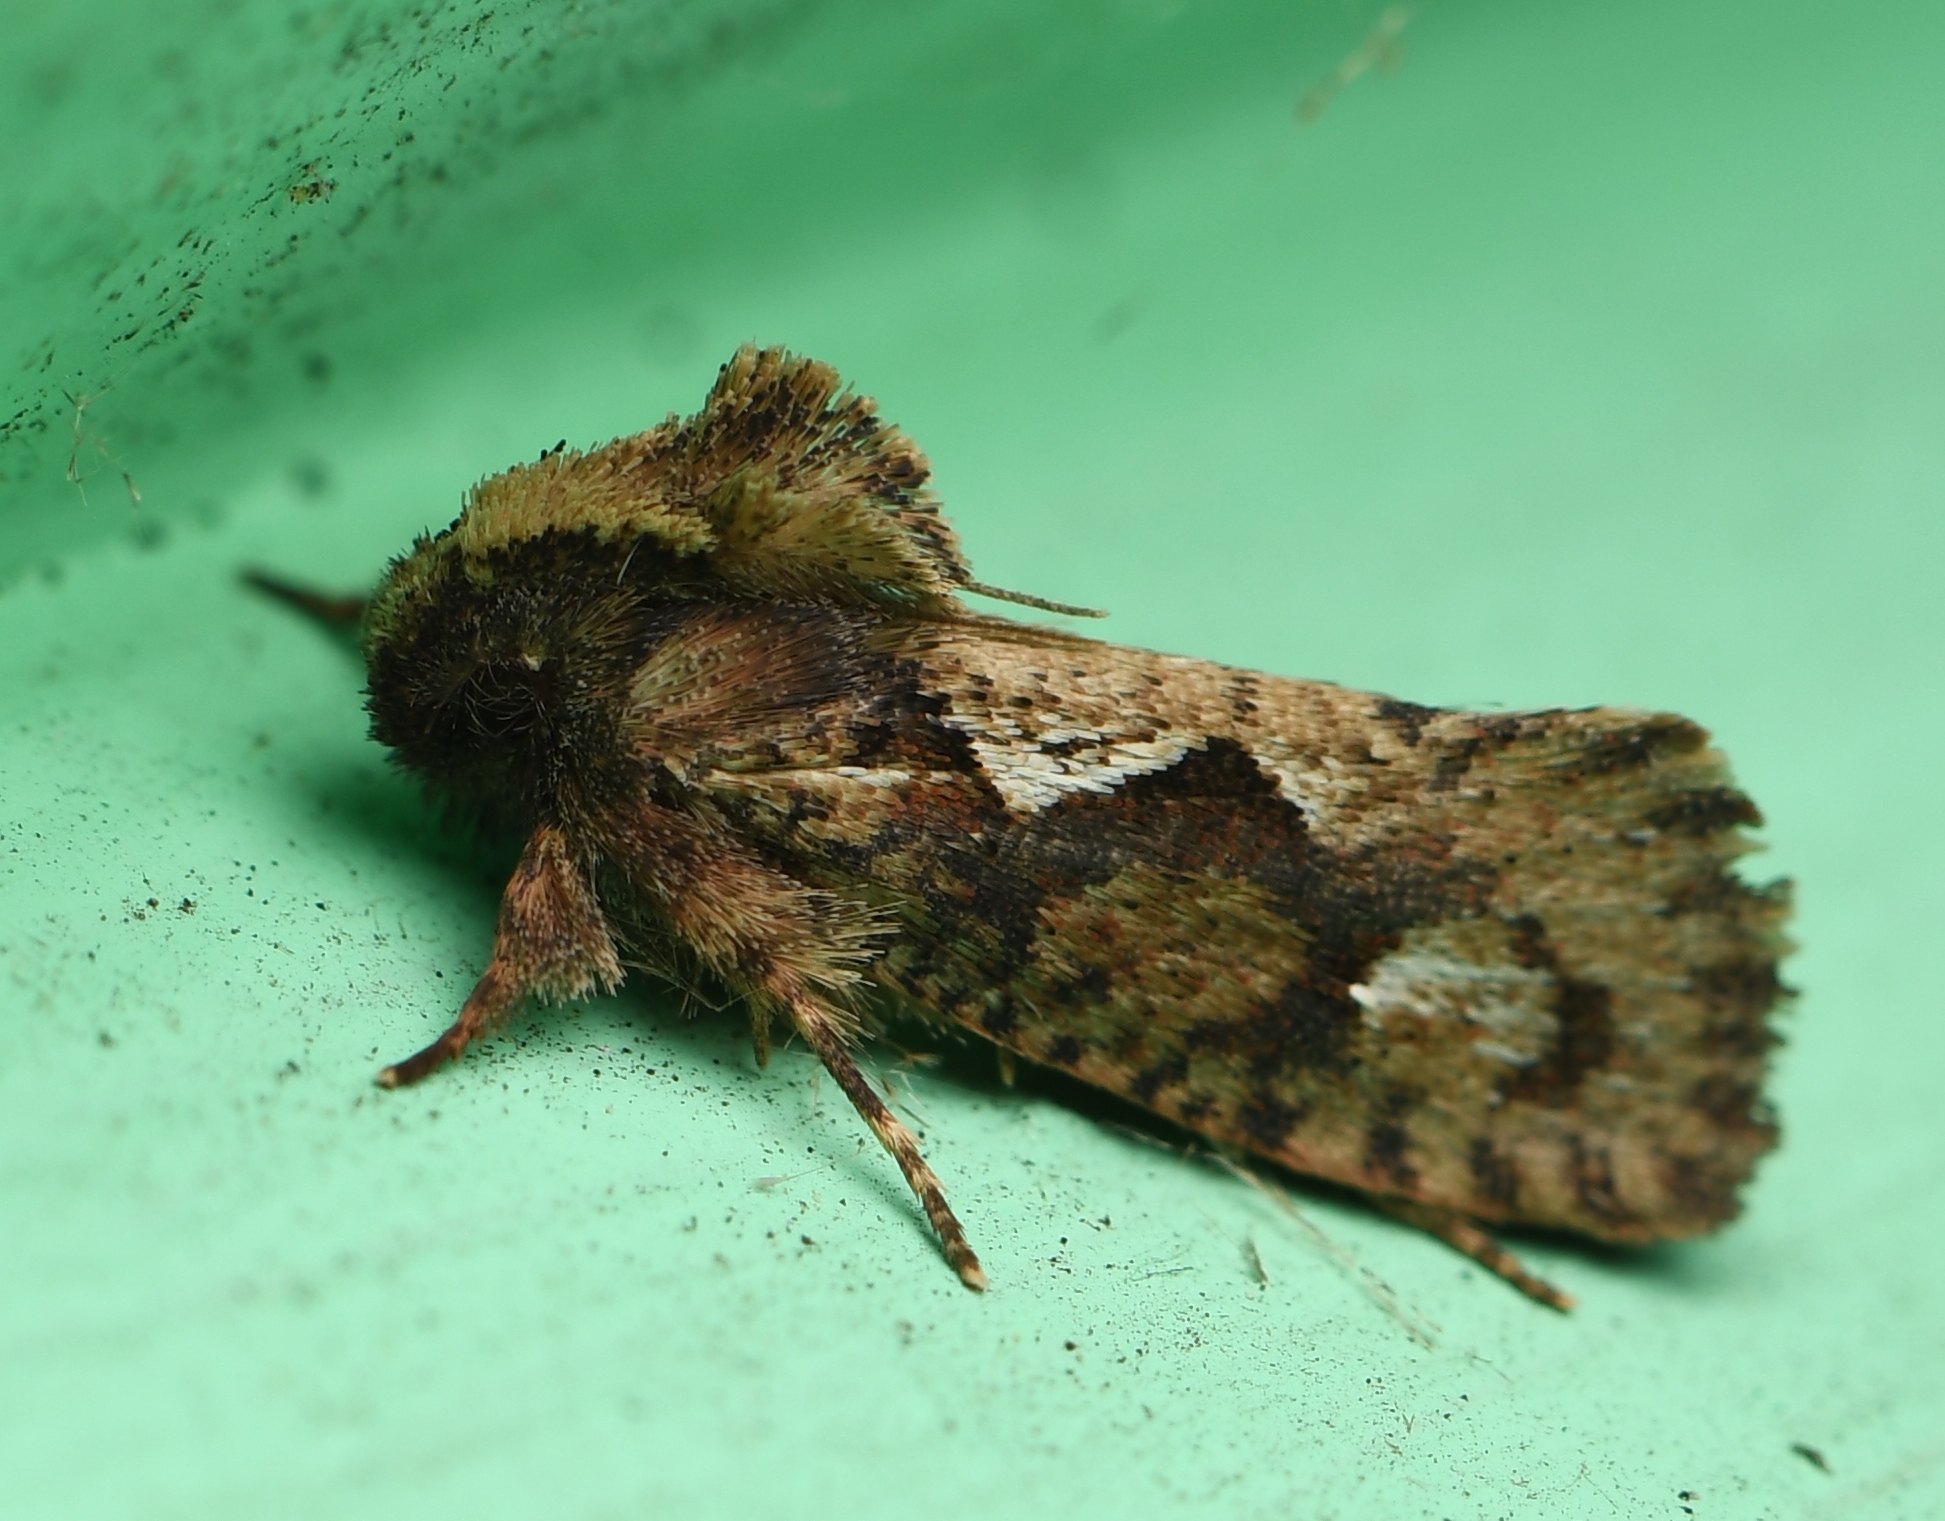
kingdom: Animalia
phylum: Arthropoda
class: Insecta
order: Lepidoptera
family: Tineidae
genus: Acrolophus
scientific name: Acrolophus walsinghami
